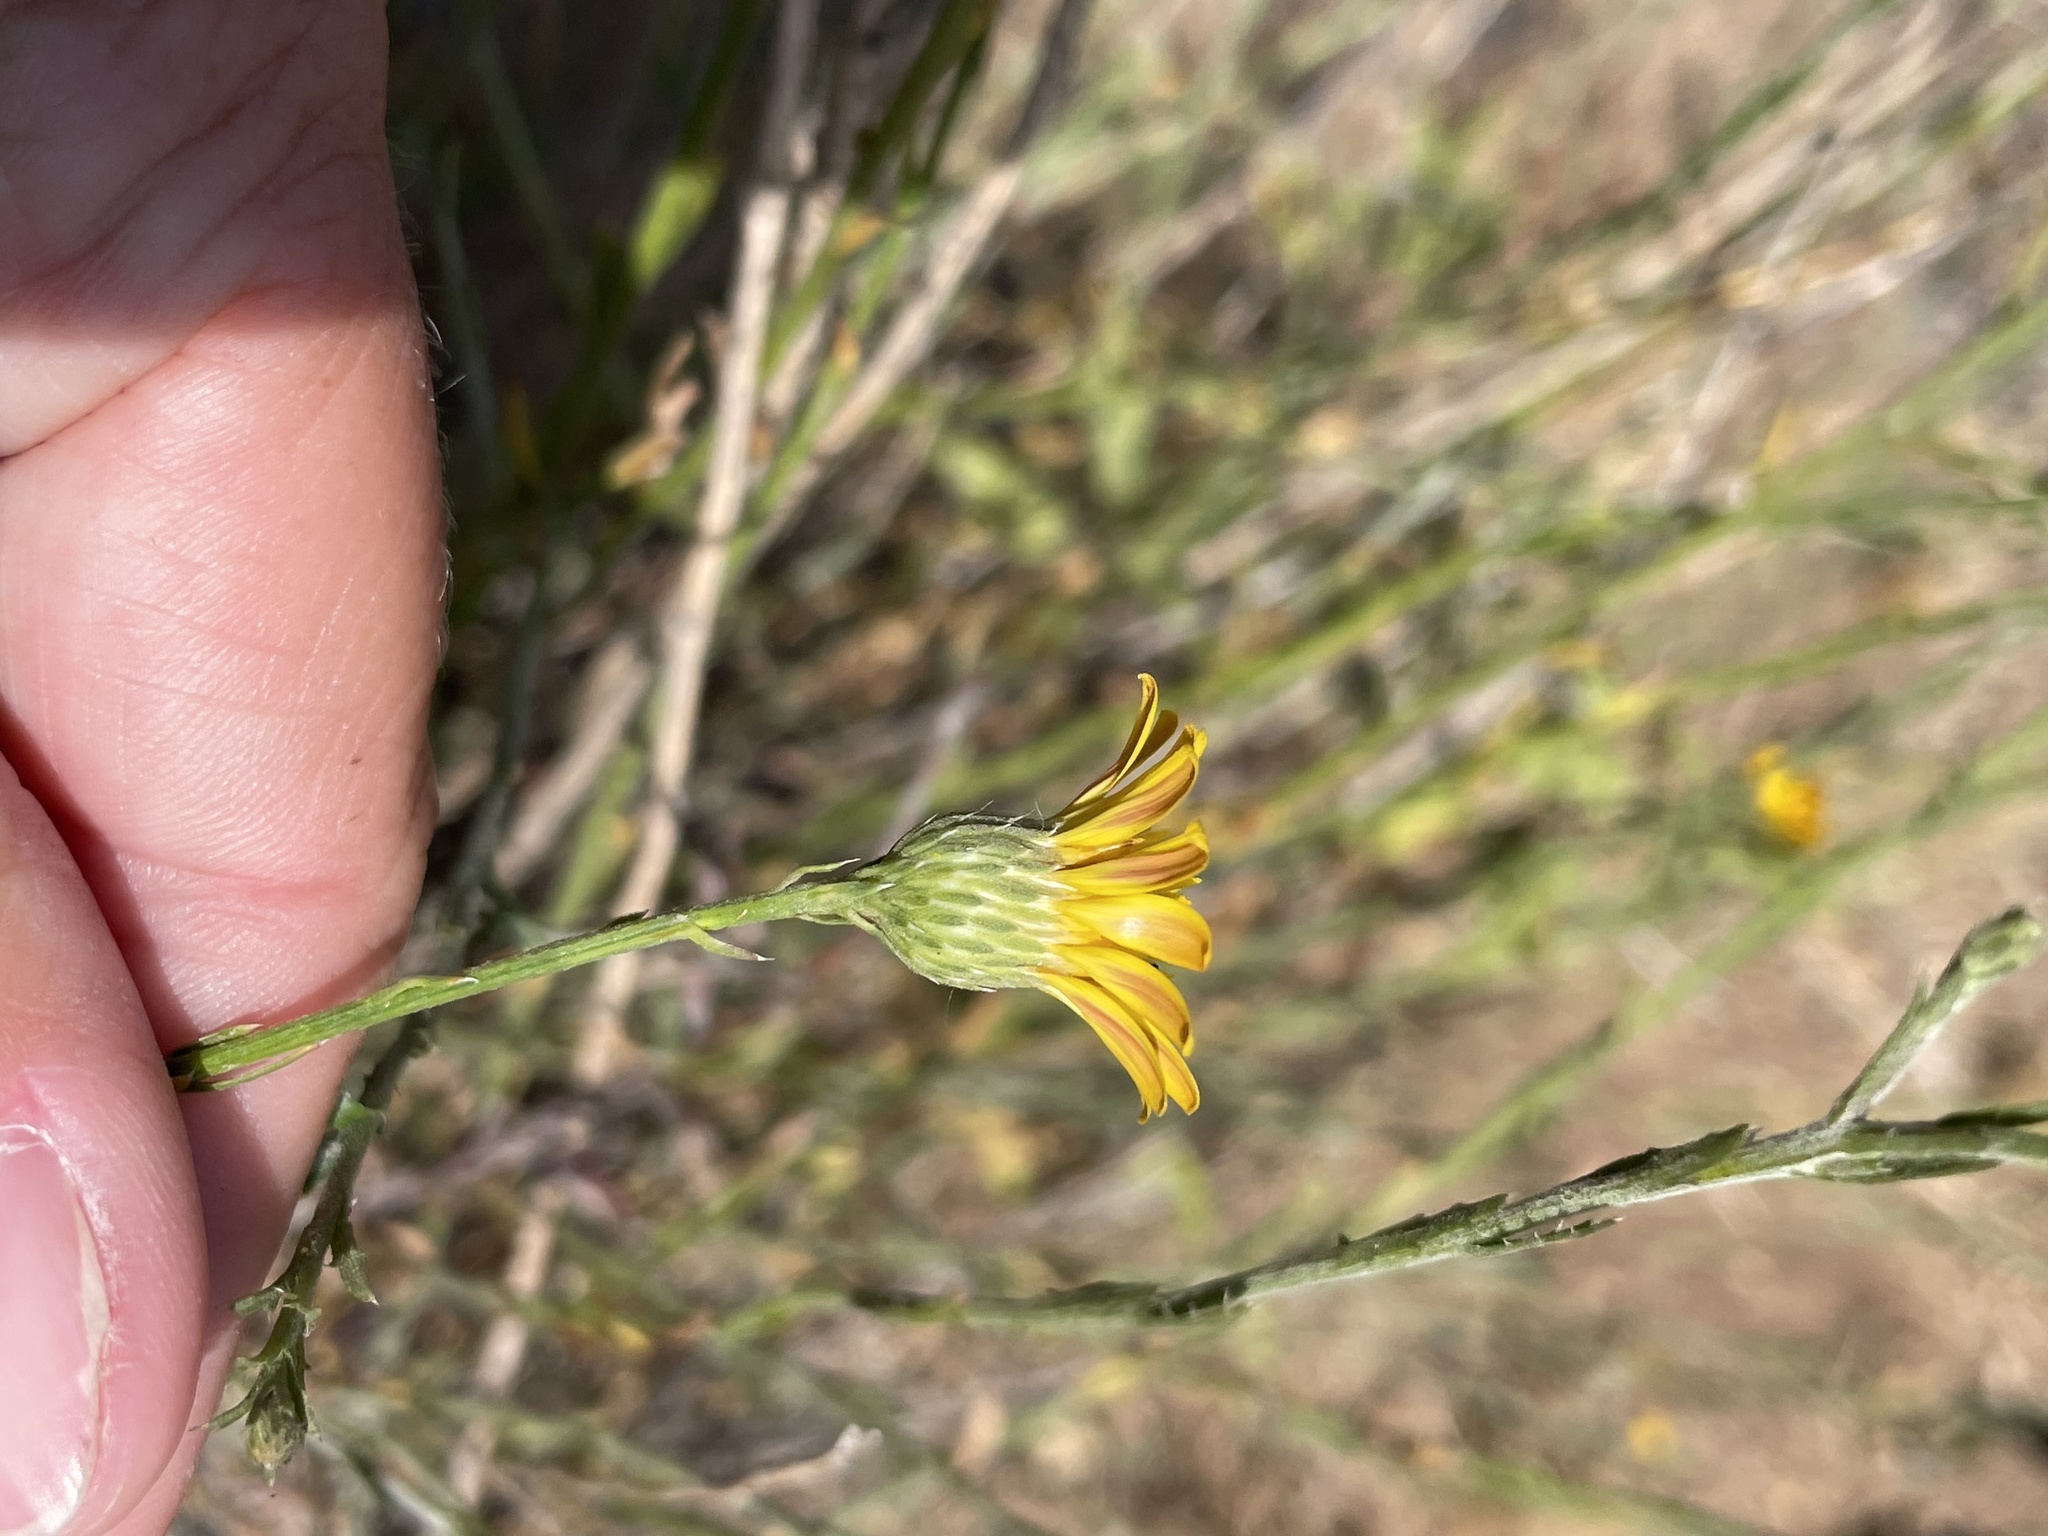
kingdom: Plantae
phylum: Tracheophyta
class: Magnoliopsida
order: Asterales
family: Asteraceae
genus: Xanthisma
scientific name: Xanthisma junceum
